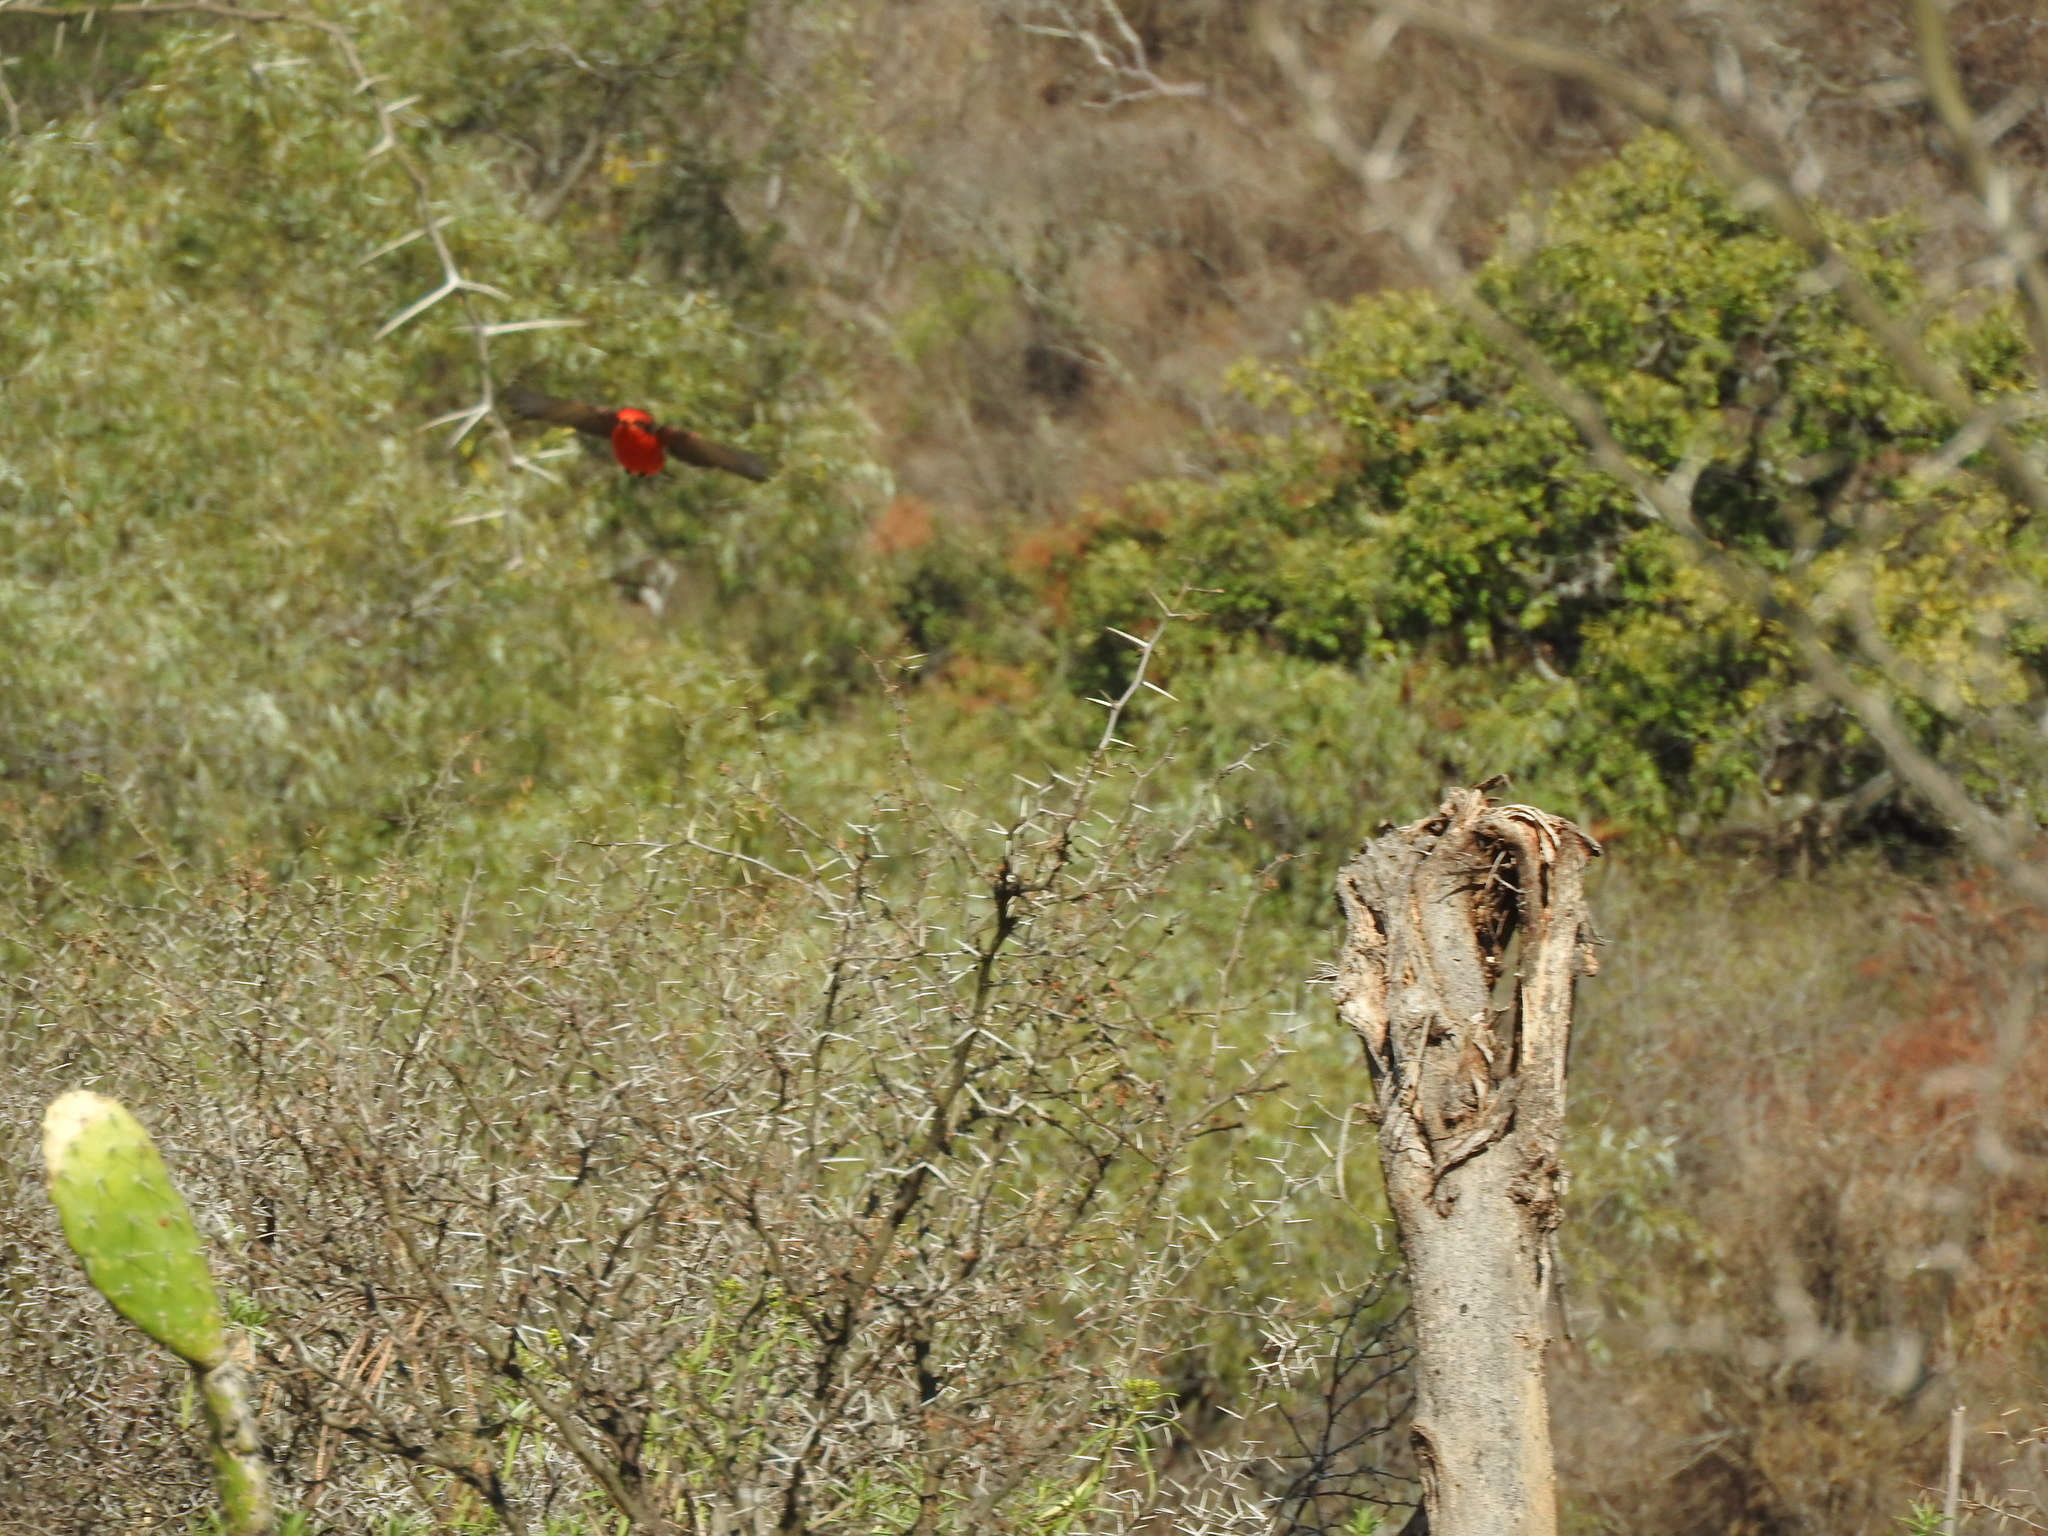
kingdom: Animalia
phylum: Chordata
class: Aves
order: Passeriformes
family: Tyrannidae
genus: Pyrocephalus
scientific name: Pyrocephalus rubinus
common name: Vermilion flycatcher
